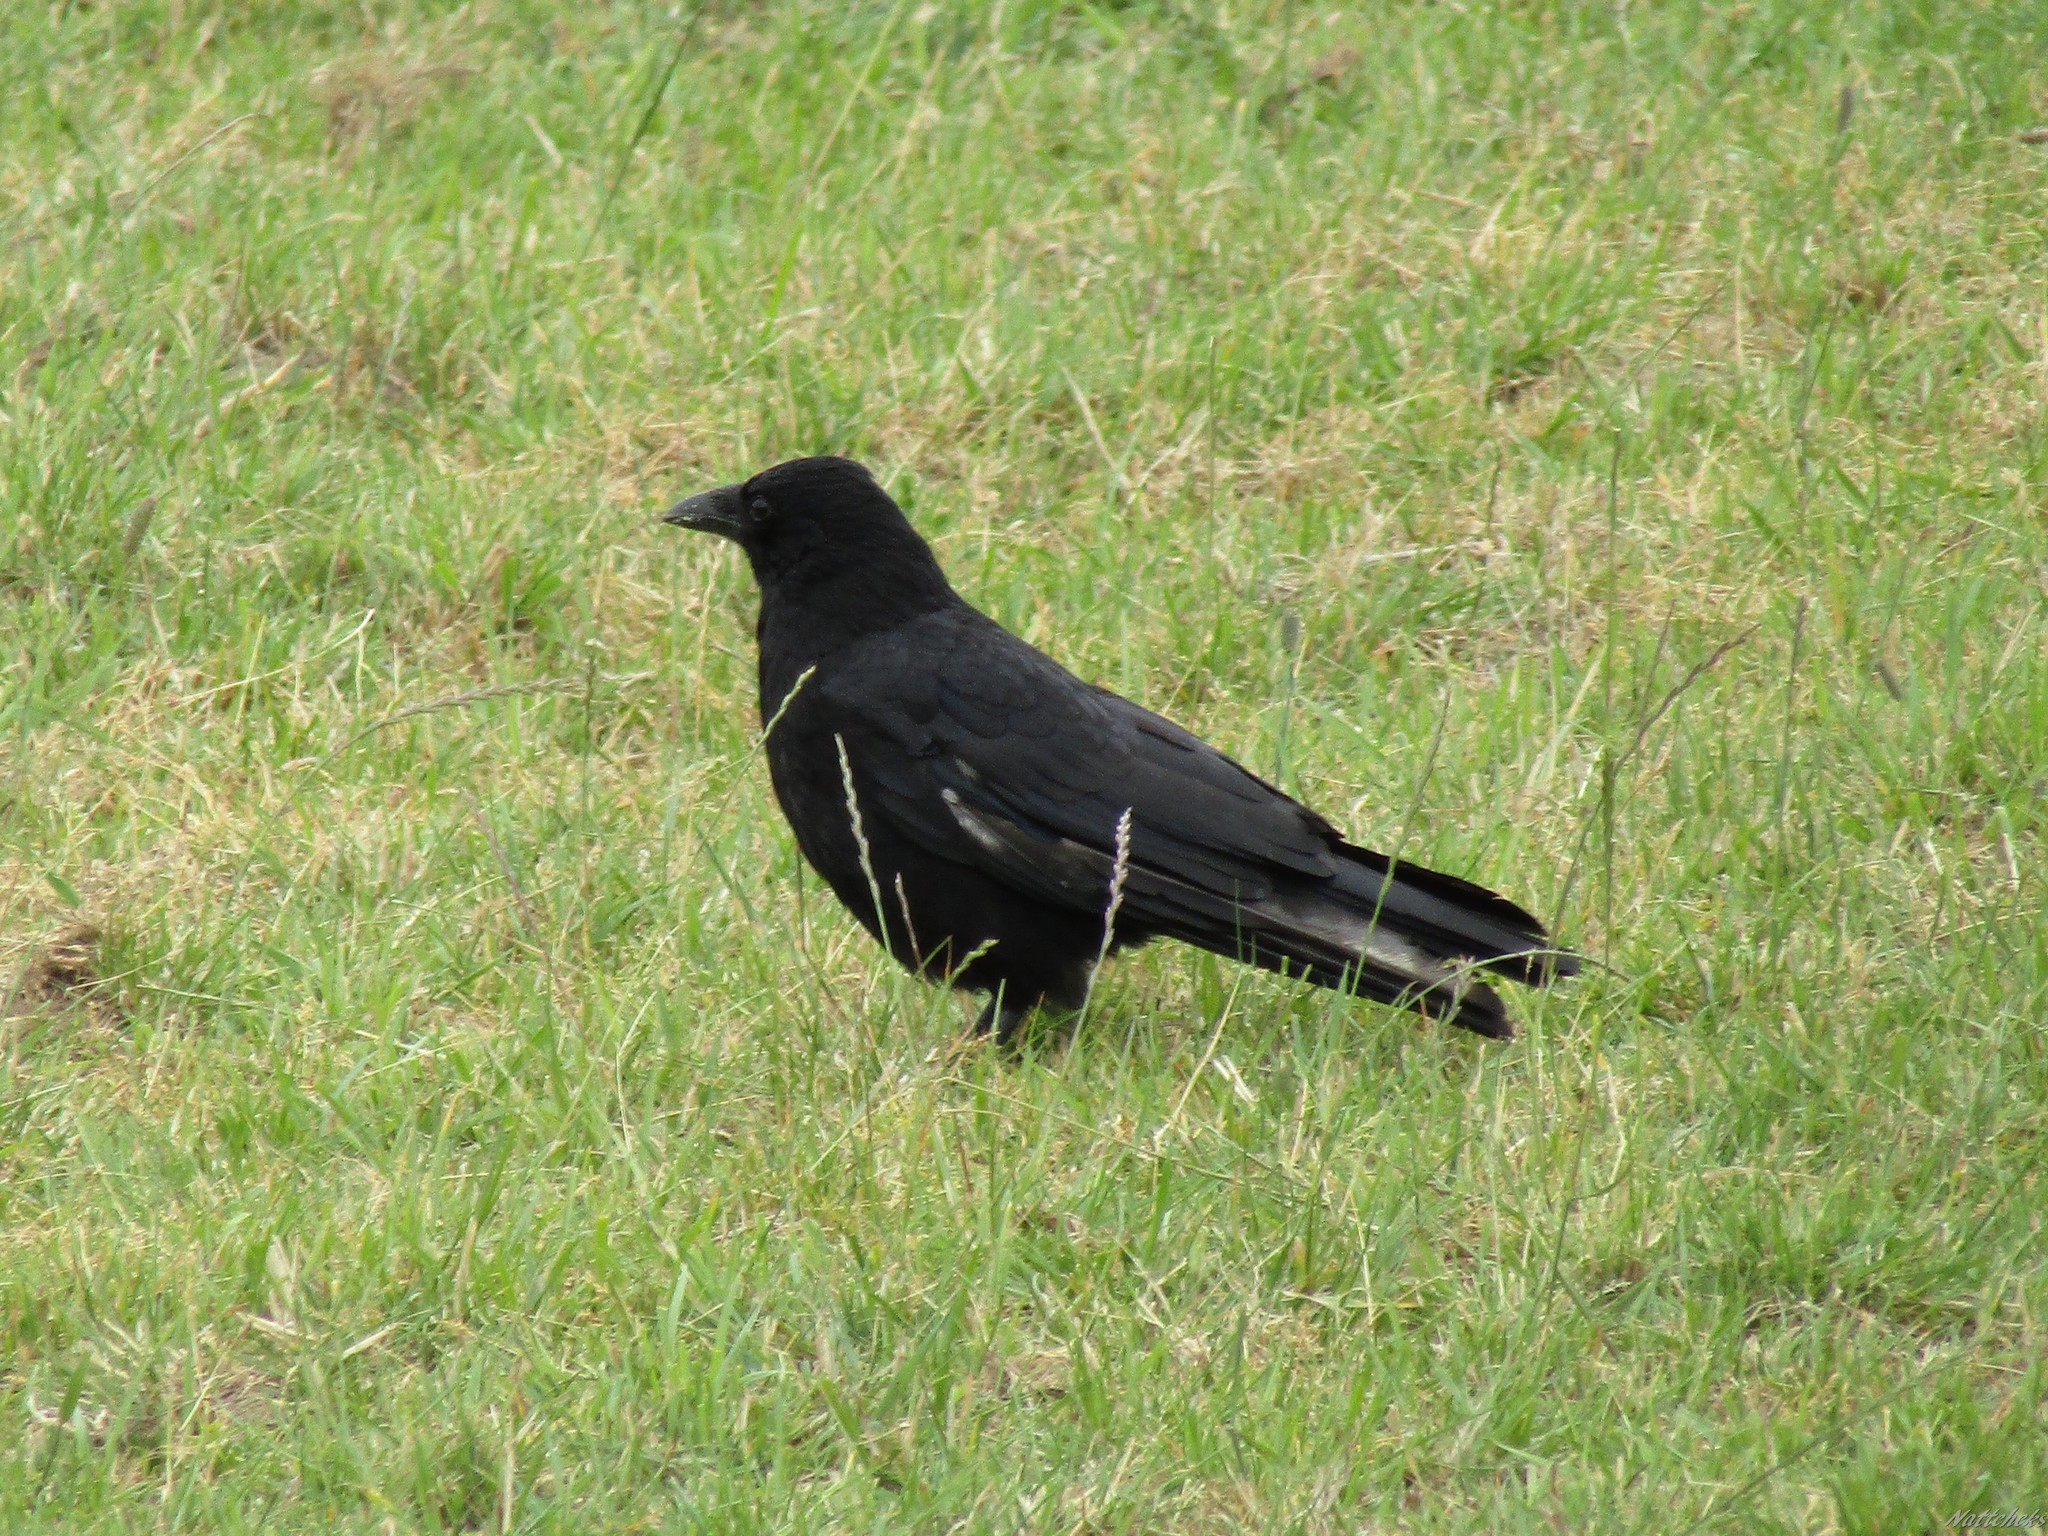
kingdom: Animalia
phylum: Chordata
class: Aves
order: Passeriformes
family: Corvidae
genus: Corvus
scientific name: Corvus corone
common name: Carrion crow
